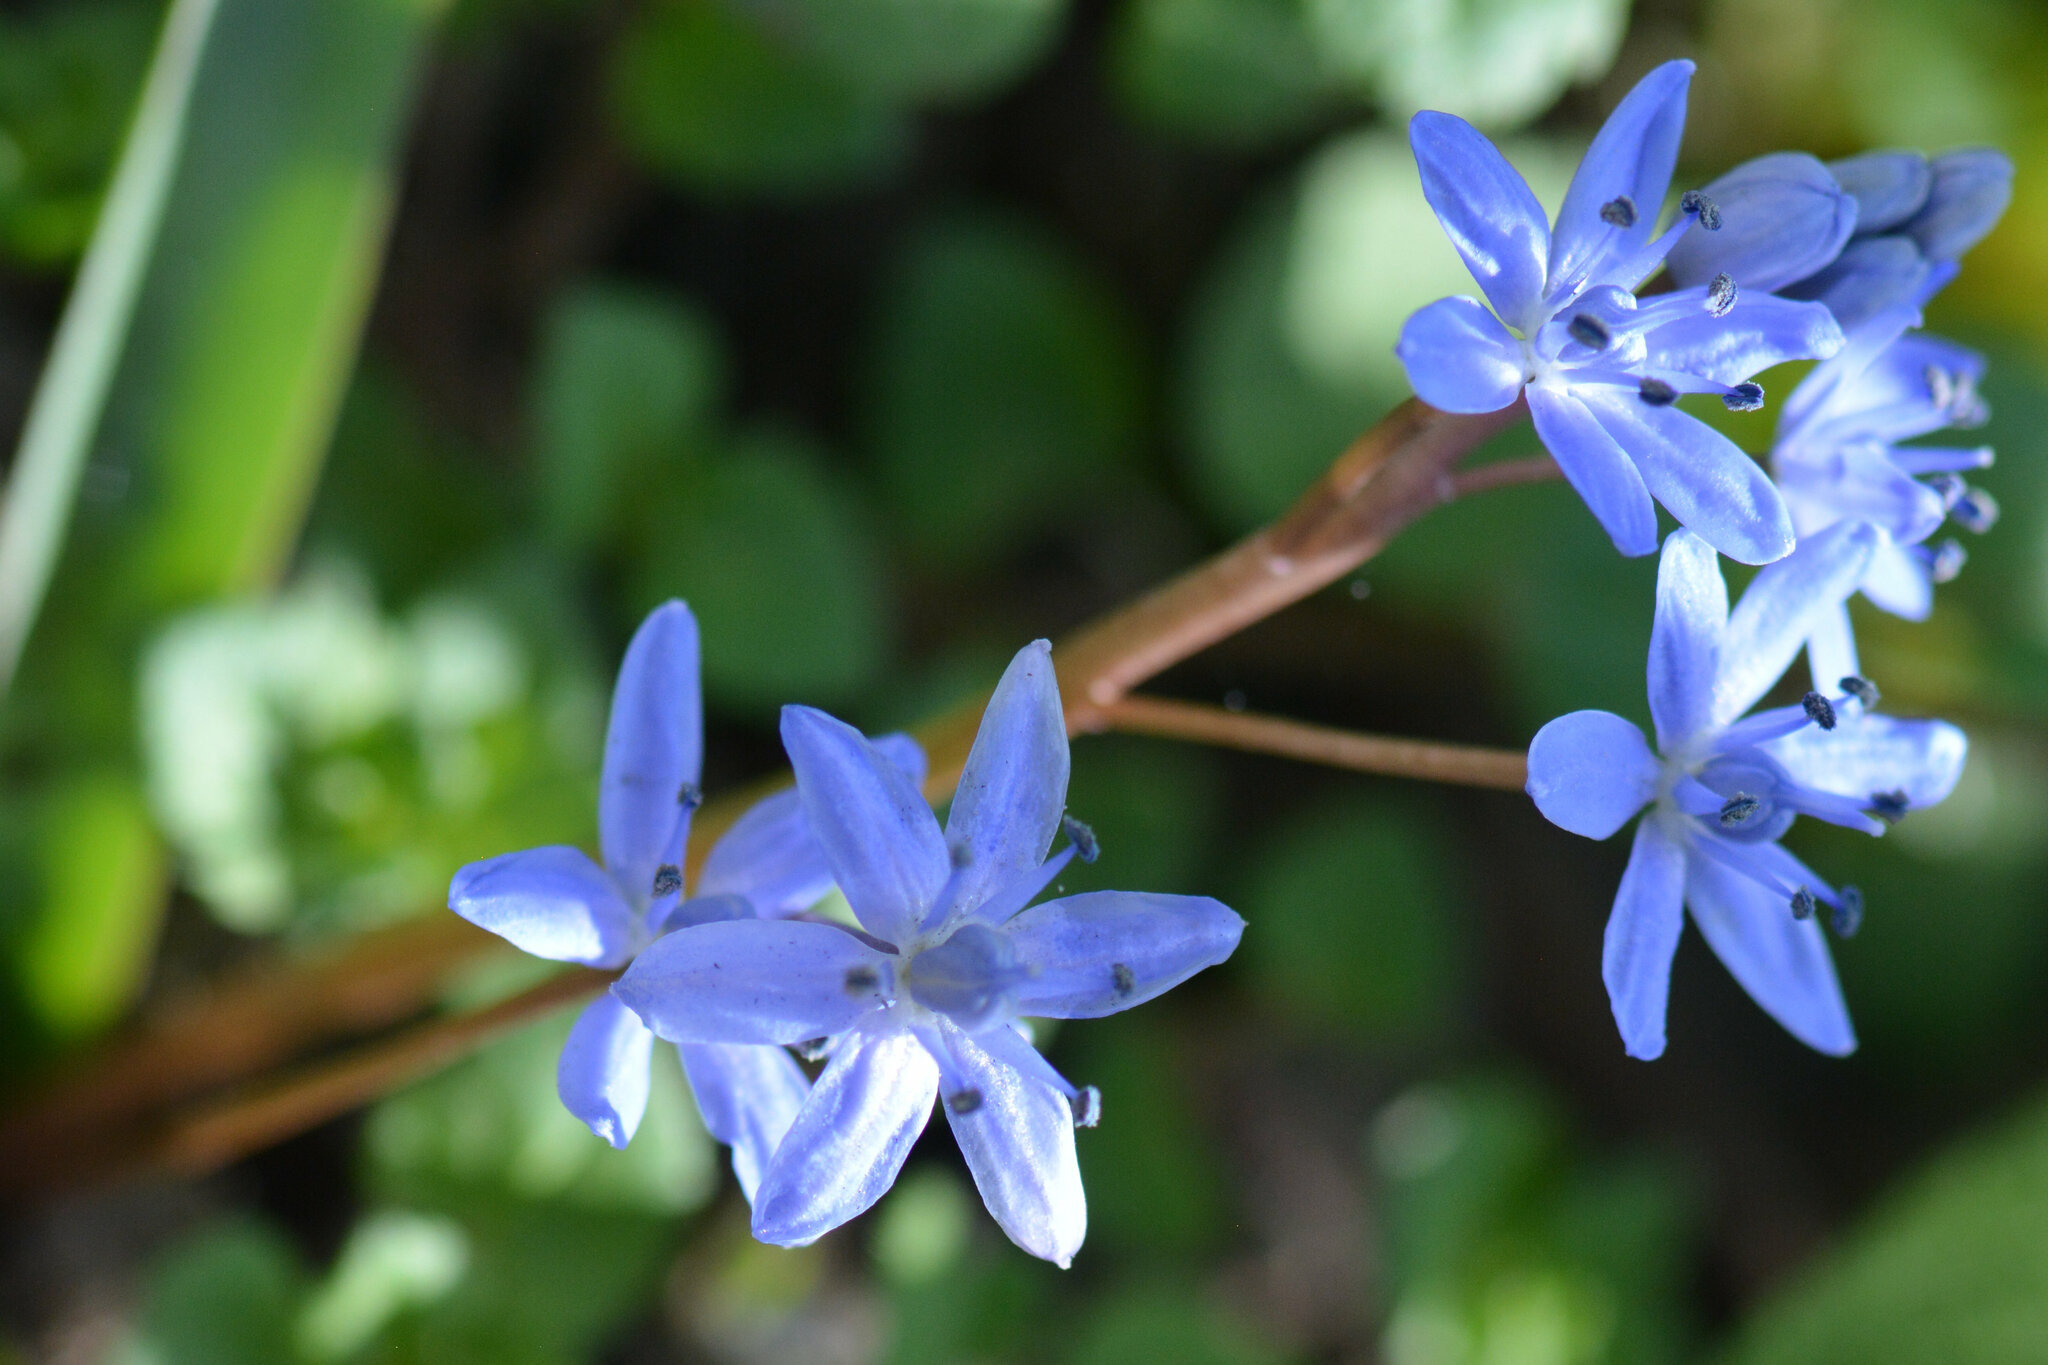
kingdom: Plantae
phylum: Tracheophyta
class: Liliopsida
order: Asparagales
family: Asparagaceae
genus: Scilla
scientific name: Scilla bifolia
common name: Alpine squill
